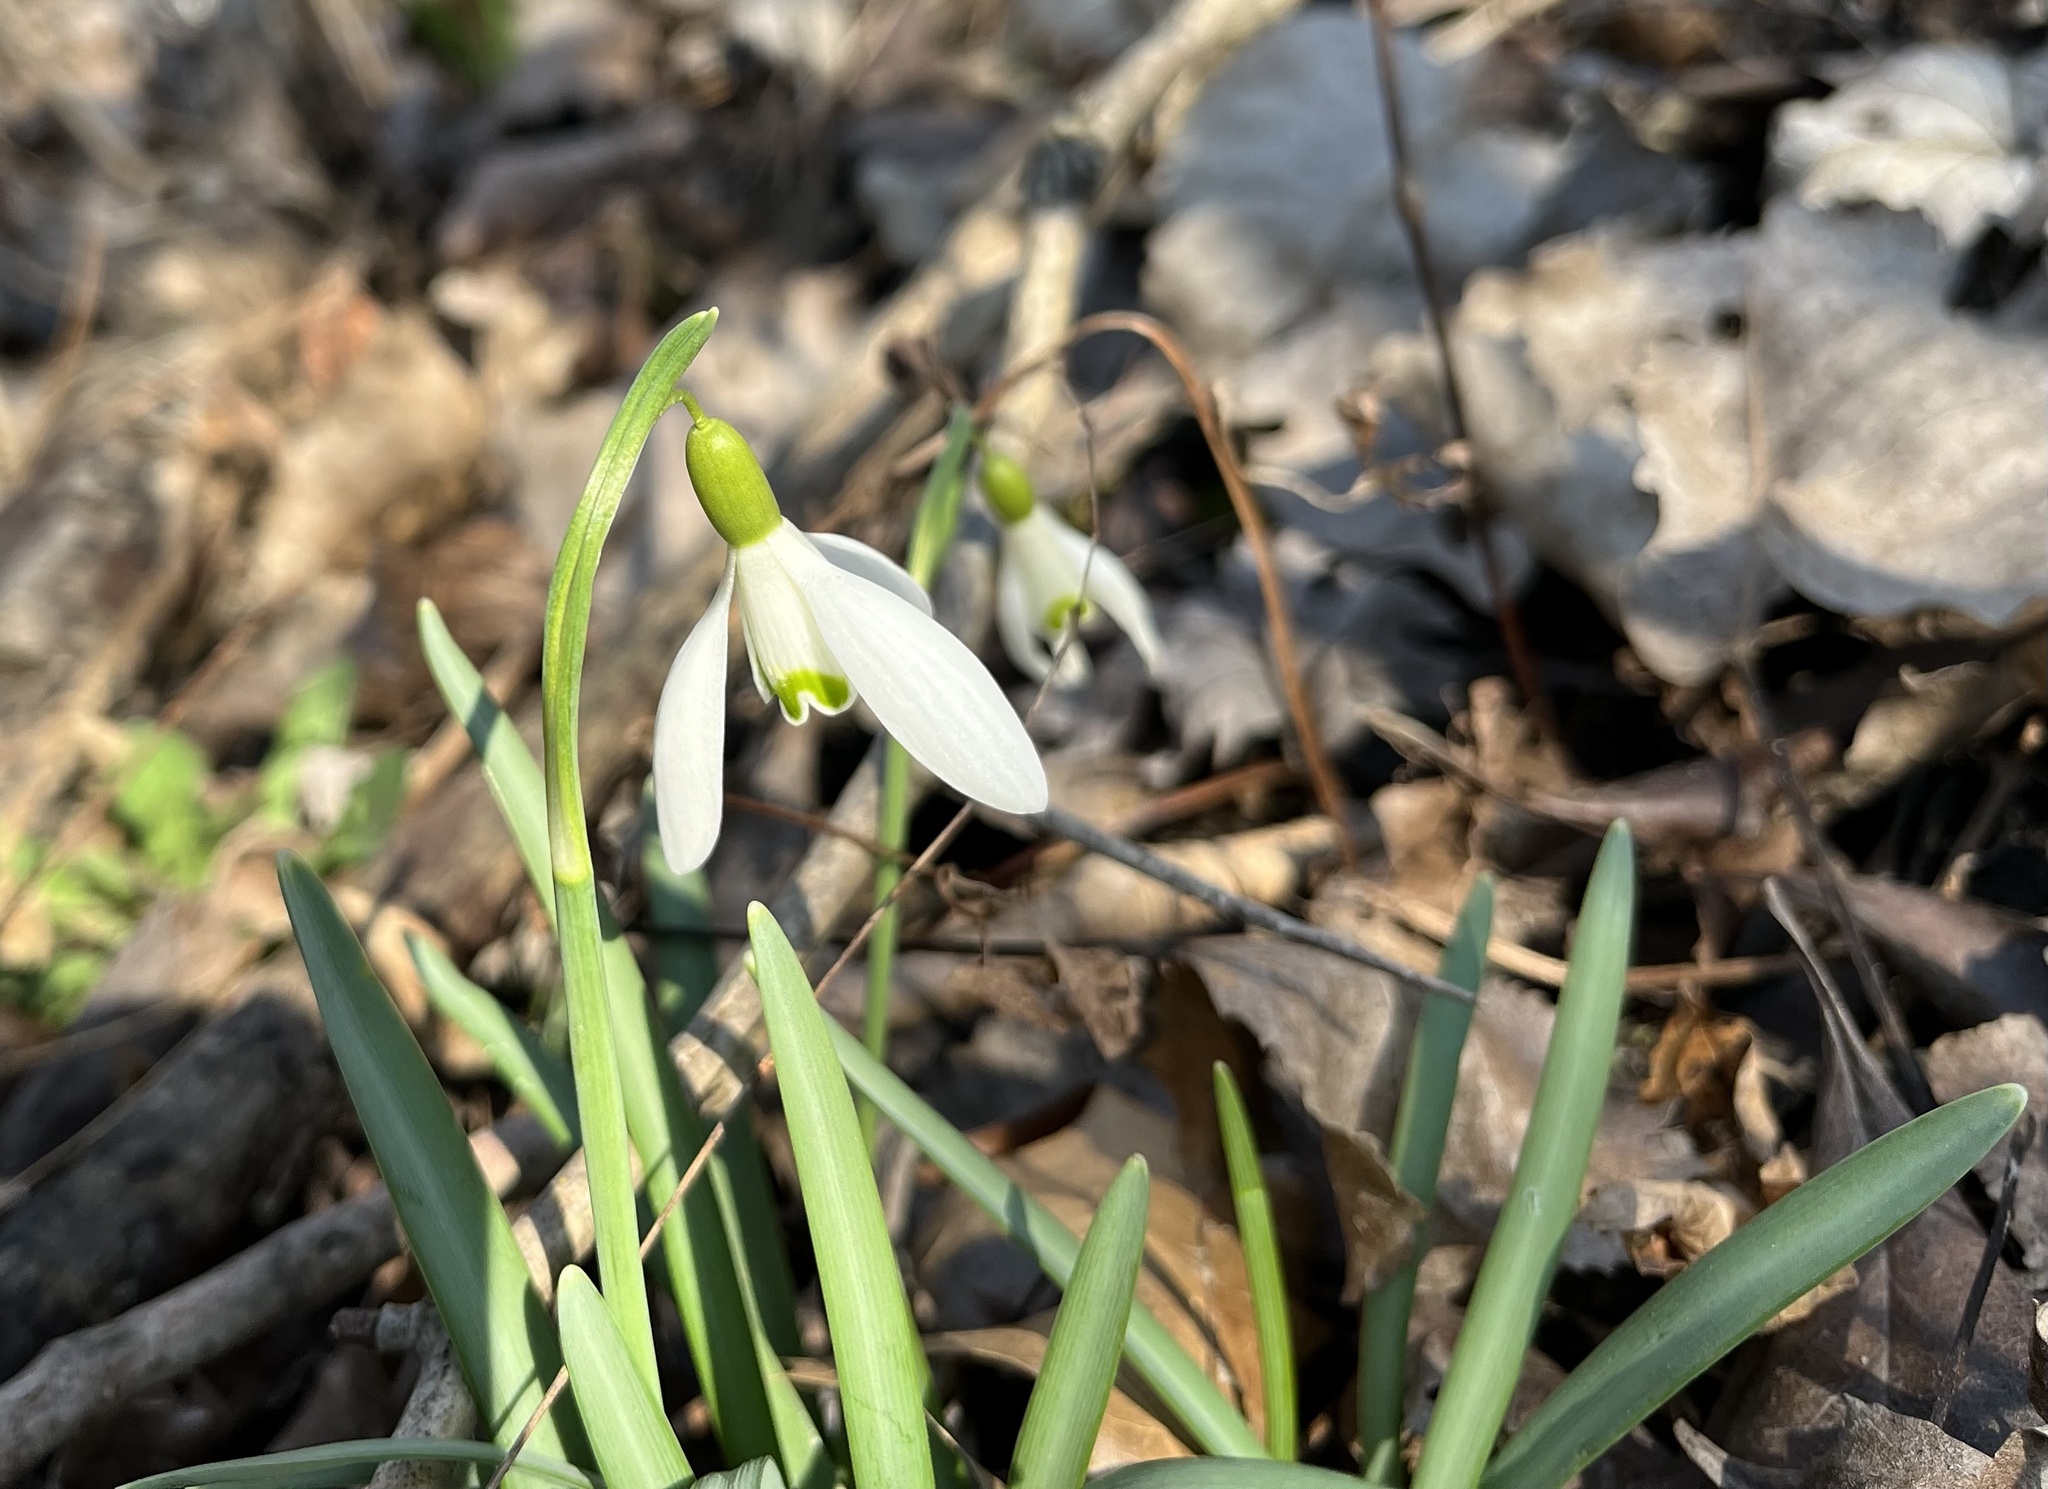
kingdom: Plantae
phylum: Tracheophyta
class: Liliopsida
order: Asparagales
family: Amaryllidaceae
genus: Galanthus
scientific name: Galanthus nivalis
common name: Snowdrop
